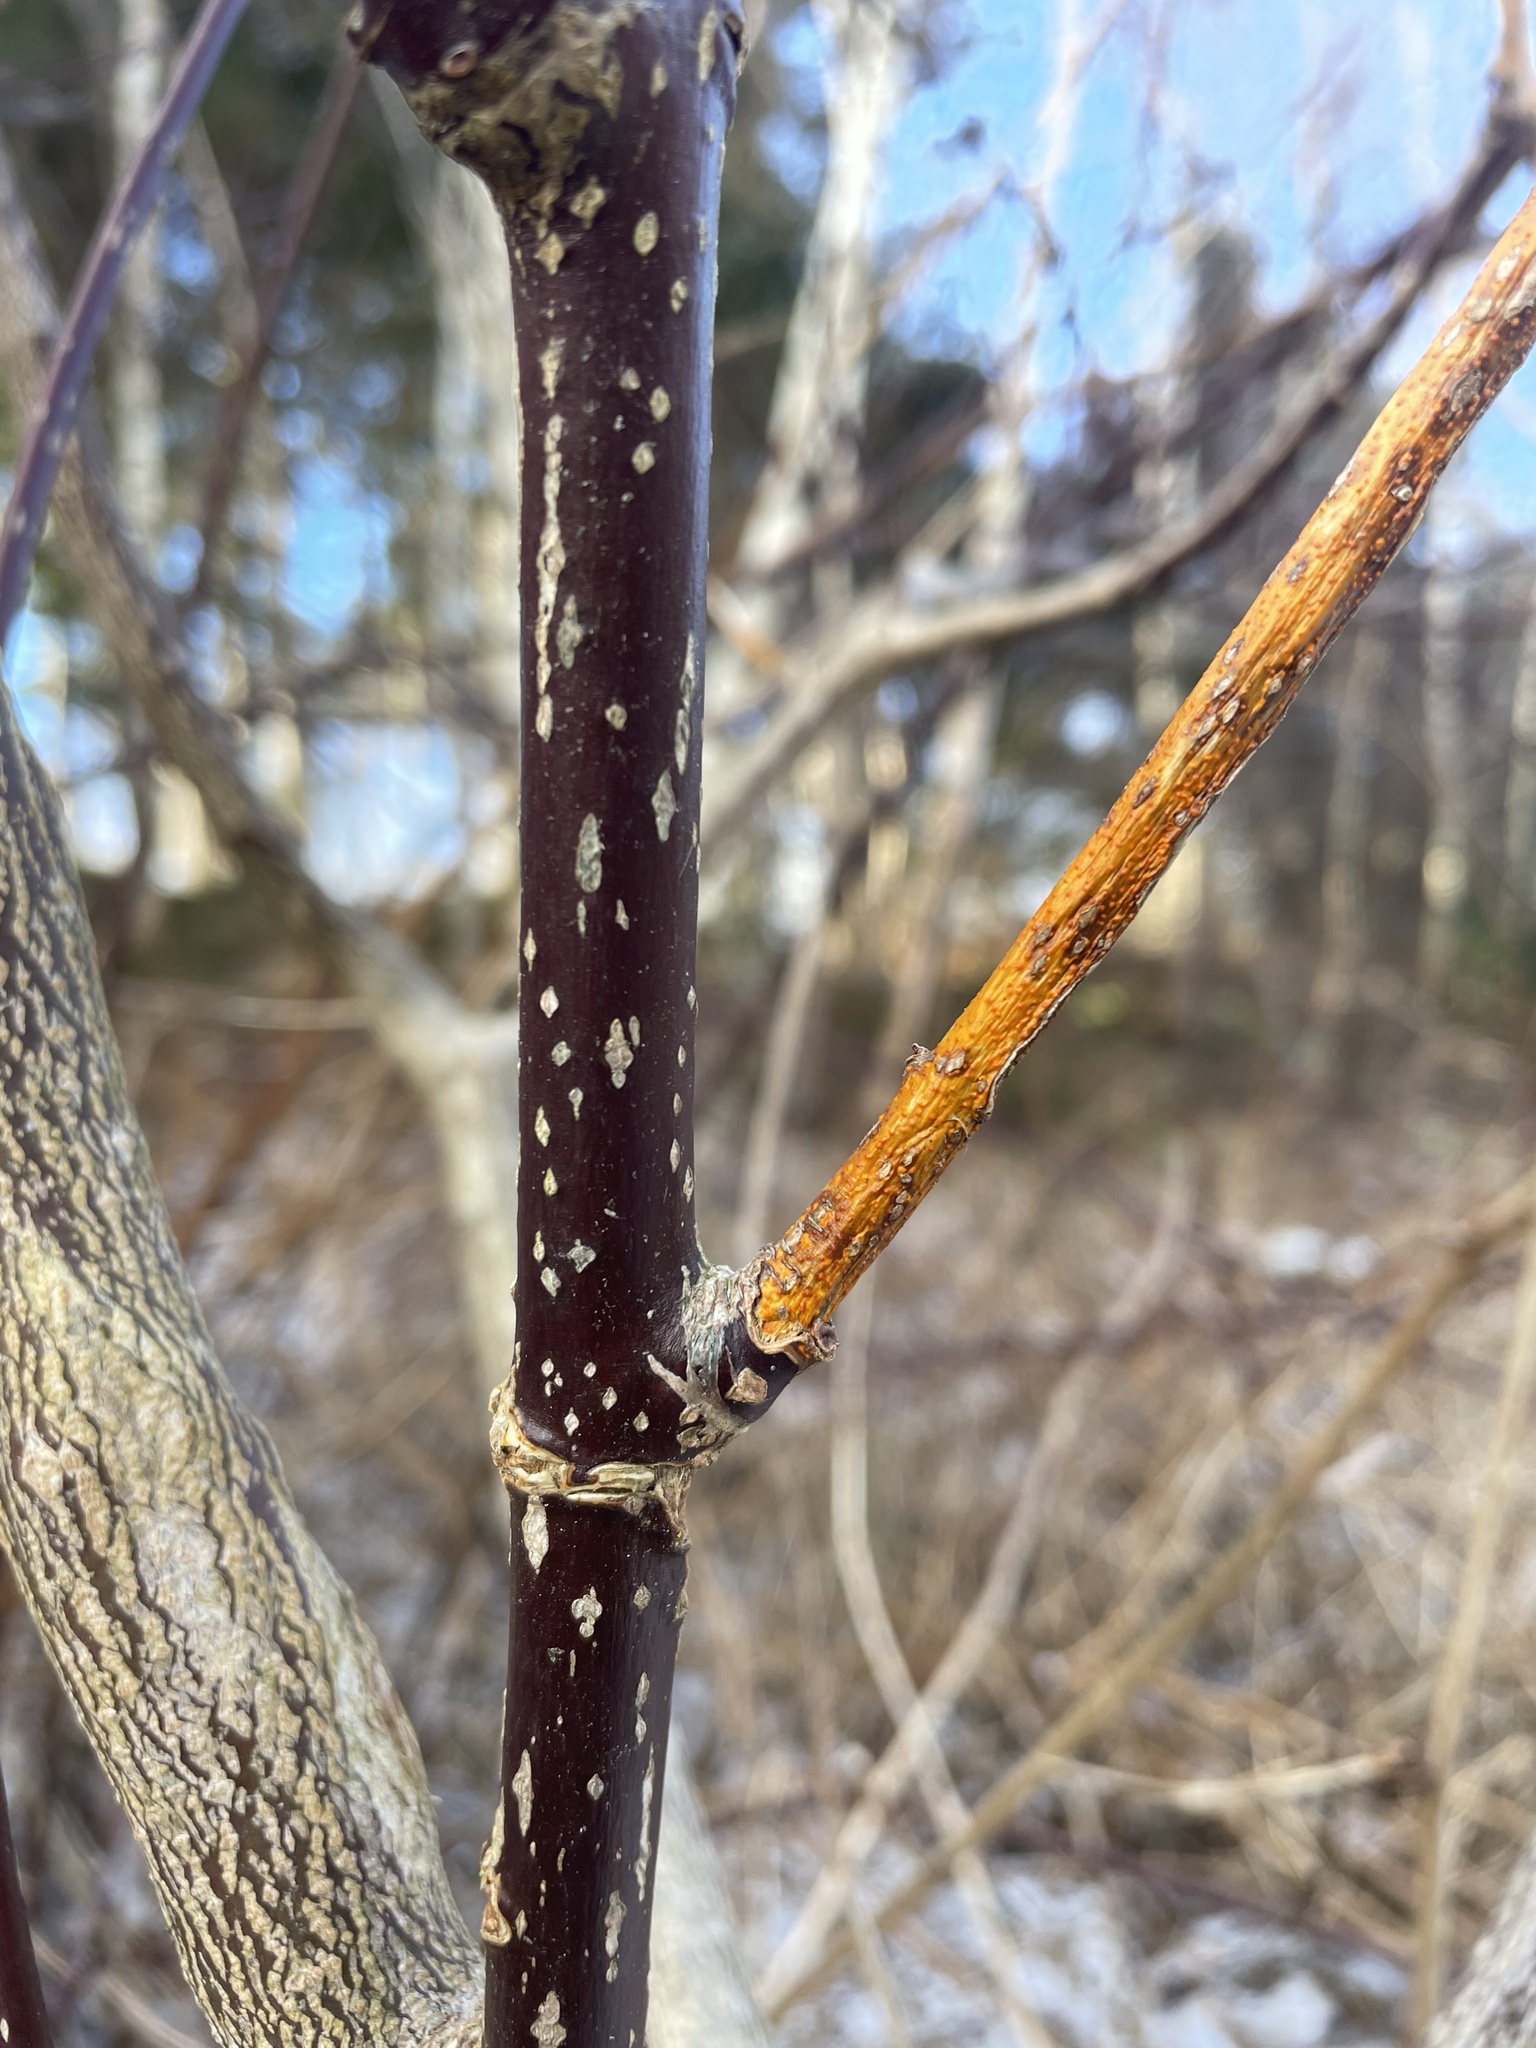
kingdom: Fungi
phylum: Ascomycota
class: Sordariomycetes
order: Diaporthales
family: Cryphonectriaceae
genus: Aurantioporthe
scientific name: Aurantioporthe corni
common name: Dogwood golden canker
